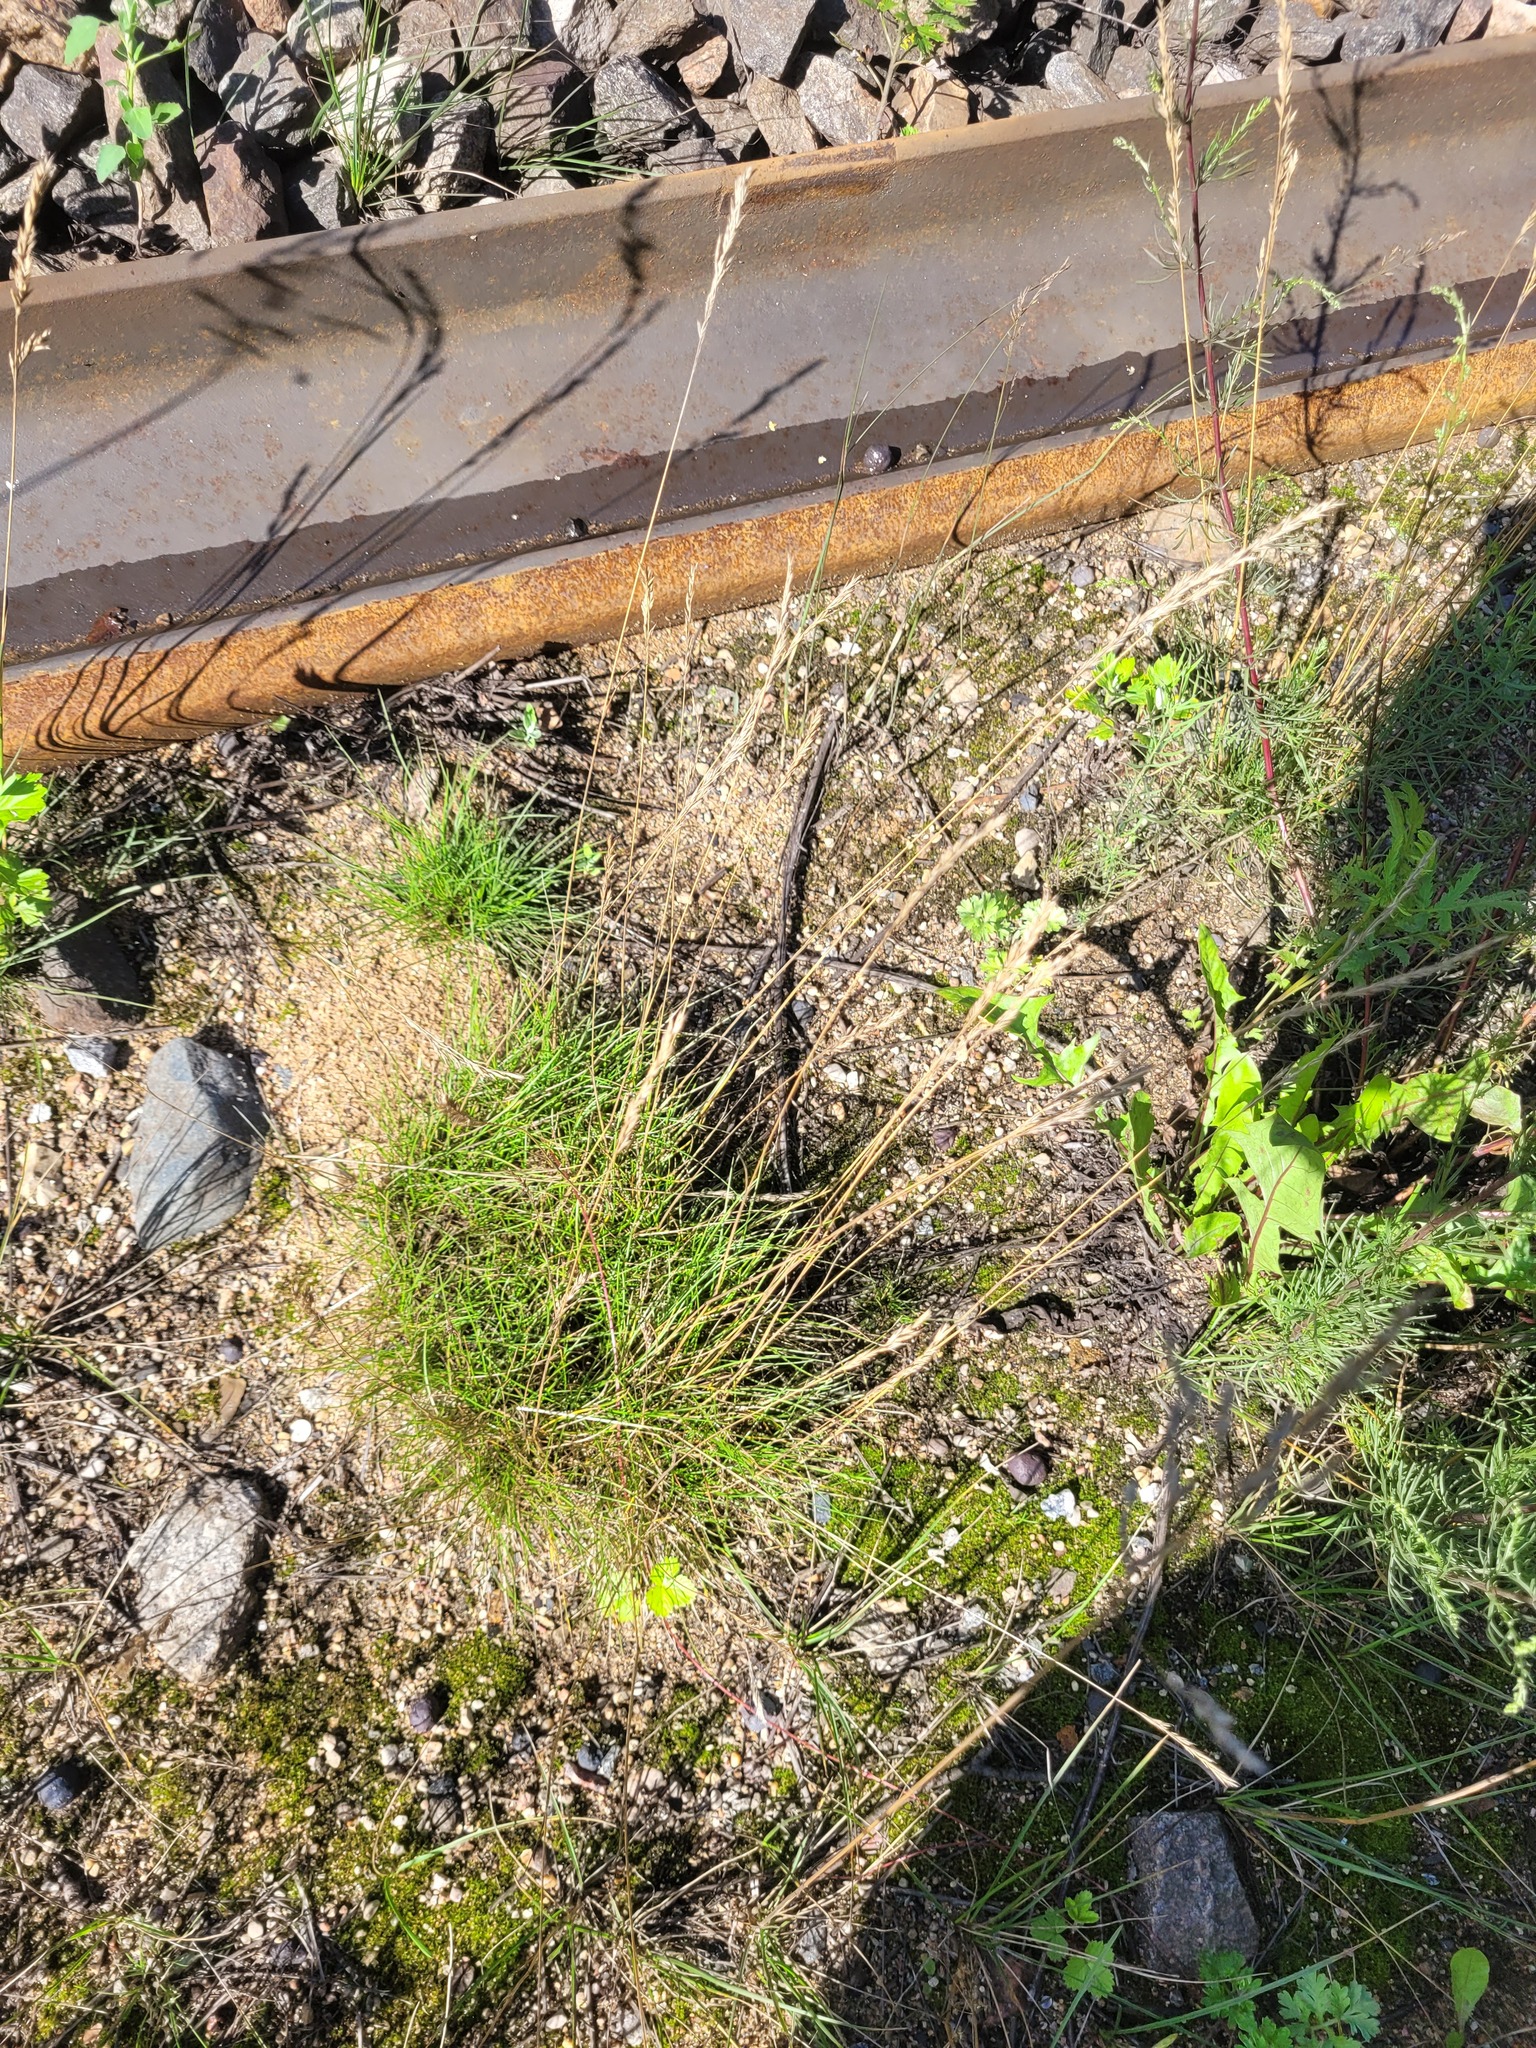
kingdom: Plantae
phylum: Tracheophyta
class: Liliopsida
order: Poales
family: Poaceae
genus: Festuca
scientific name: Festuca rubra
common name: Red fescue
